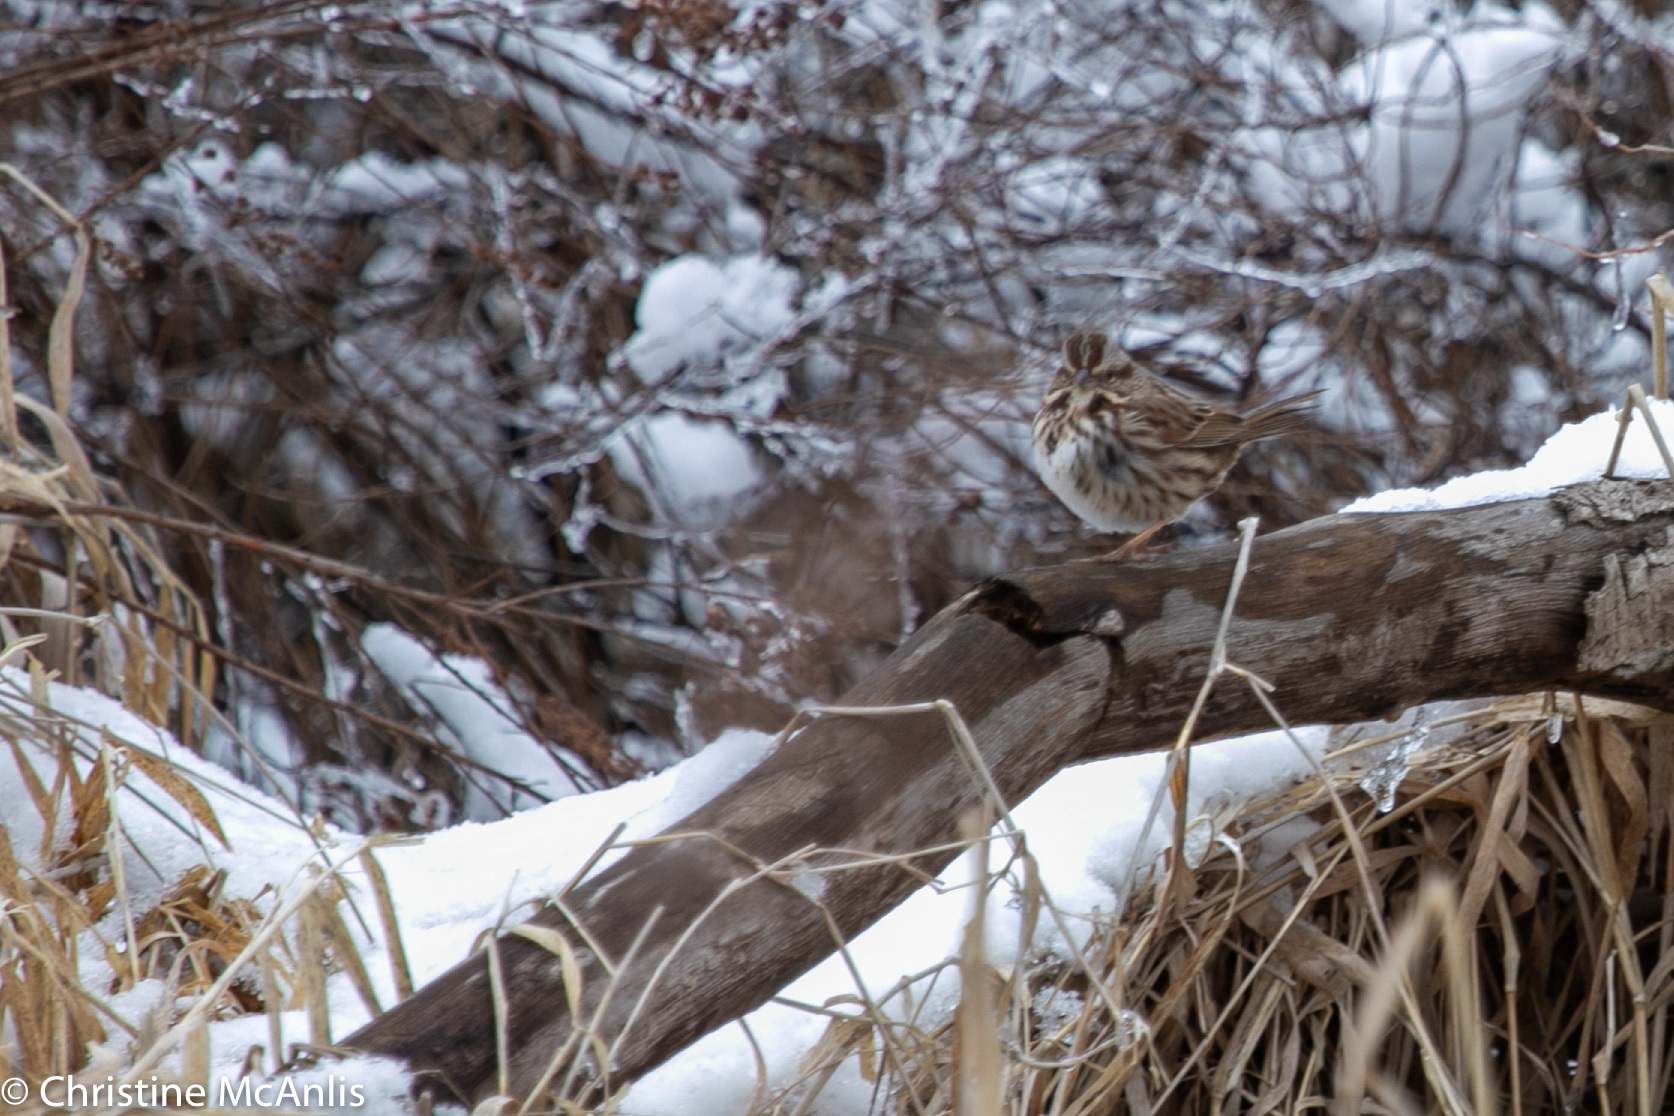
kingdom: Animalia
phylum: Chordata
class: Aves
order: Passeriformes
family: Passerellidae
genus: Melospiza
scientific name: Melospiza melodia
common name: Song sparrow
